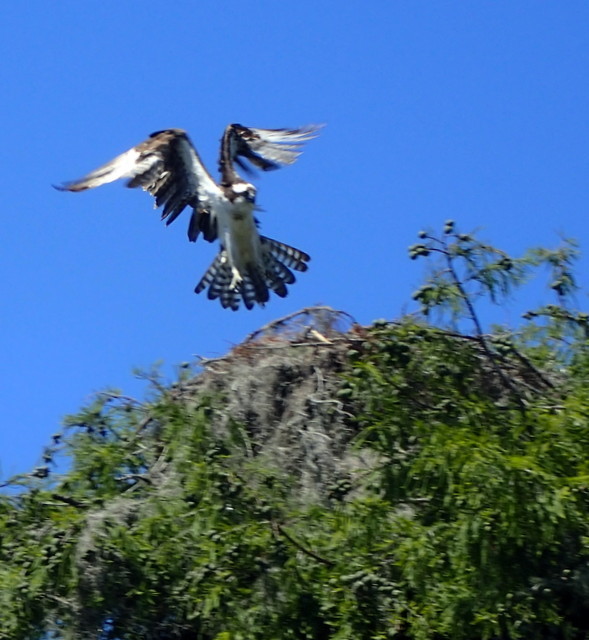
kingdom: Animalia
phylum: Chordata
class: Aves
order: Accipitriformes
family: Pandionidae
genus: Pandion
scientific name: Pandion haliaetus
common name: Osprey
